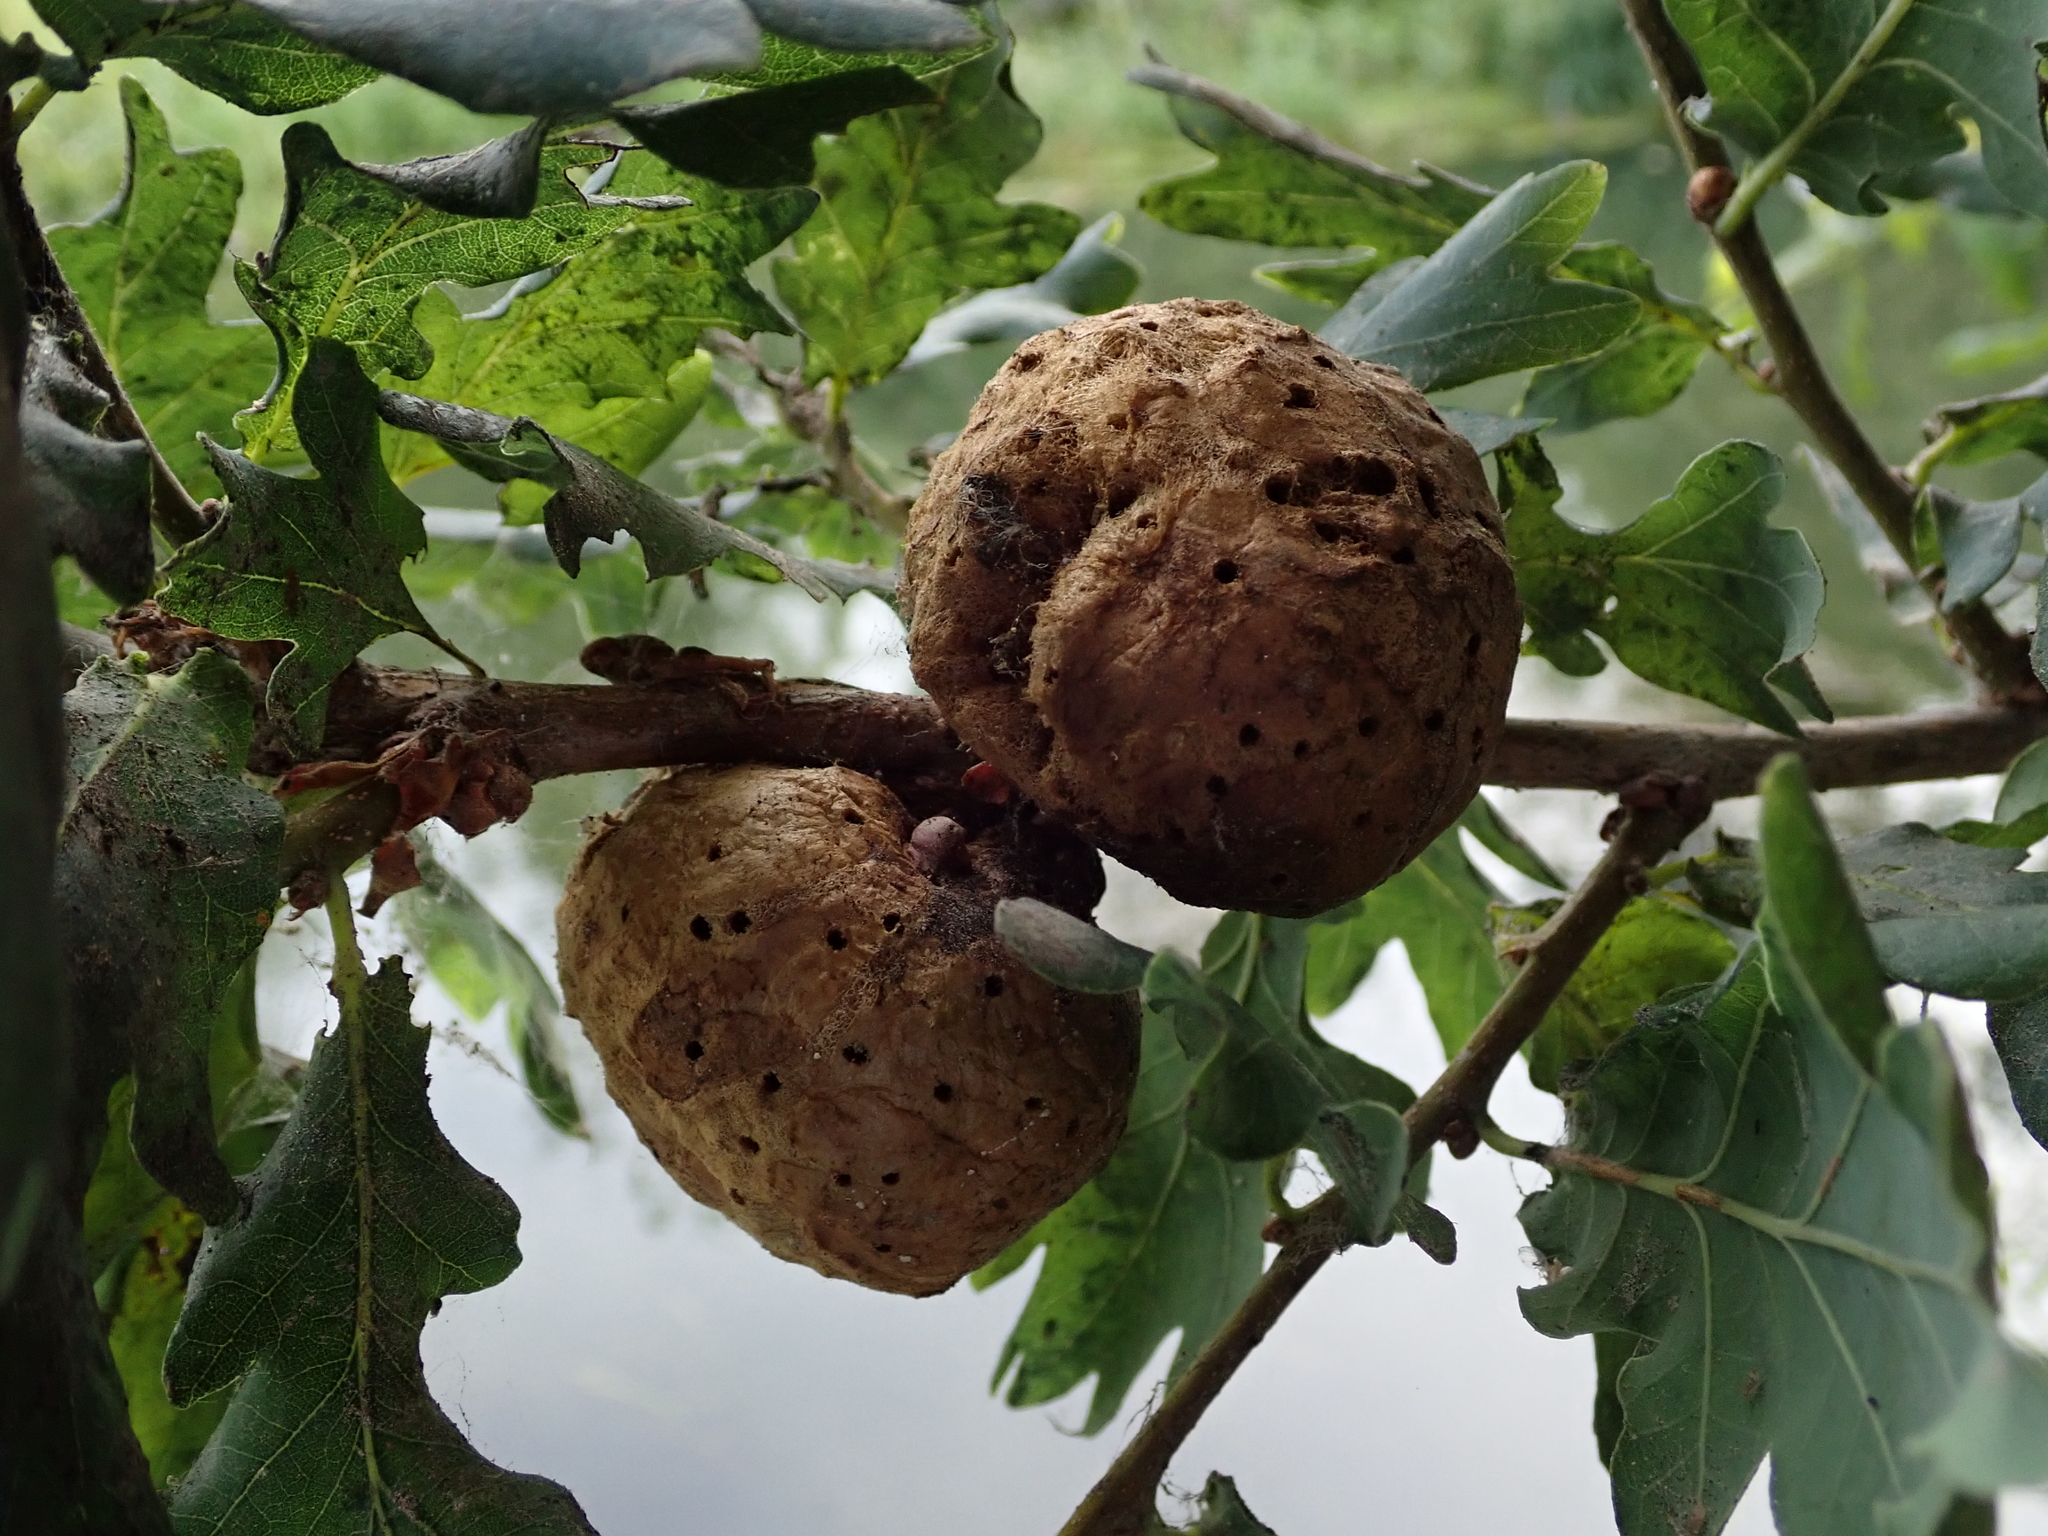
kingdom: Animalia
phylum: Arthropoda
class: Insecta
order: Hymenoptera
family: Cynipidae
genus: Biorhiza
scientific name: Biorhiza pallida
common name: Oak apple
